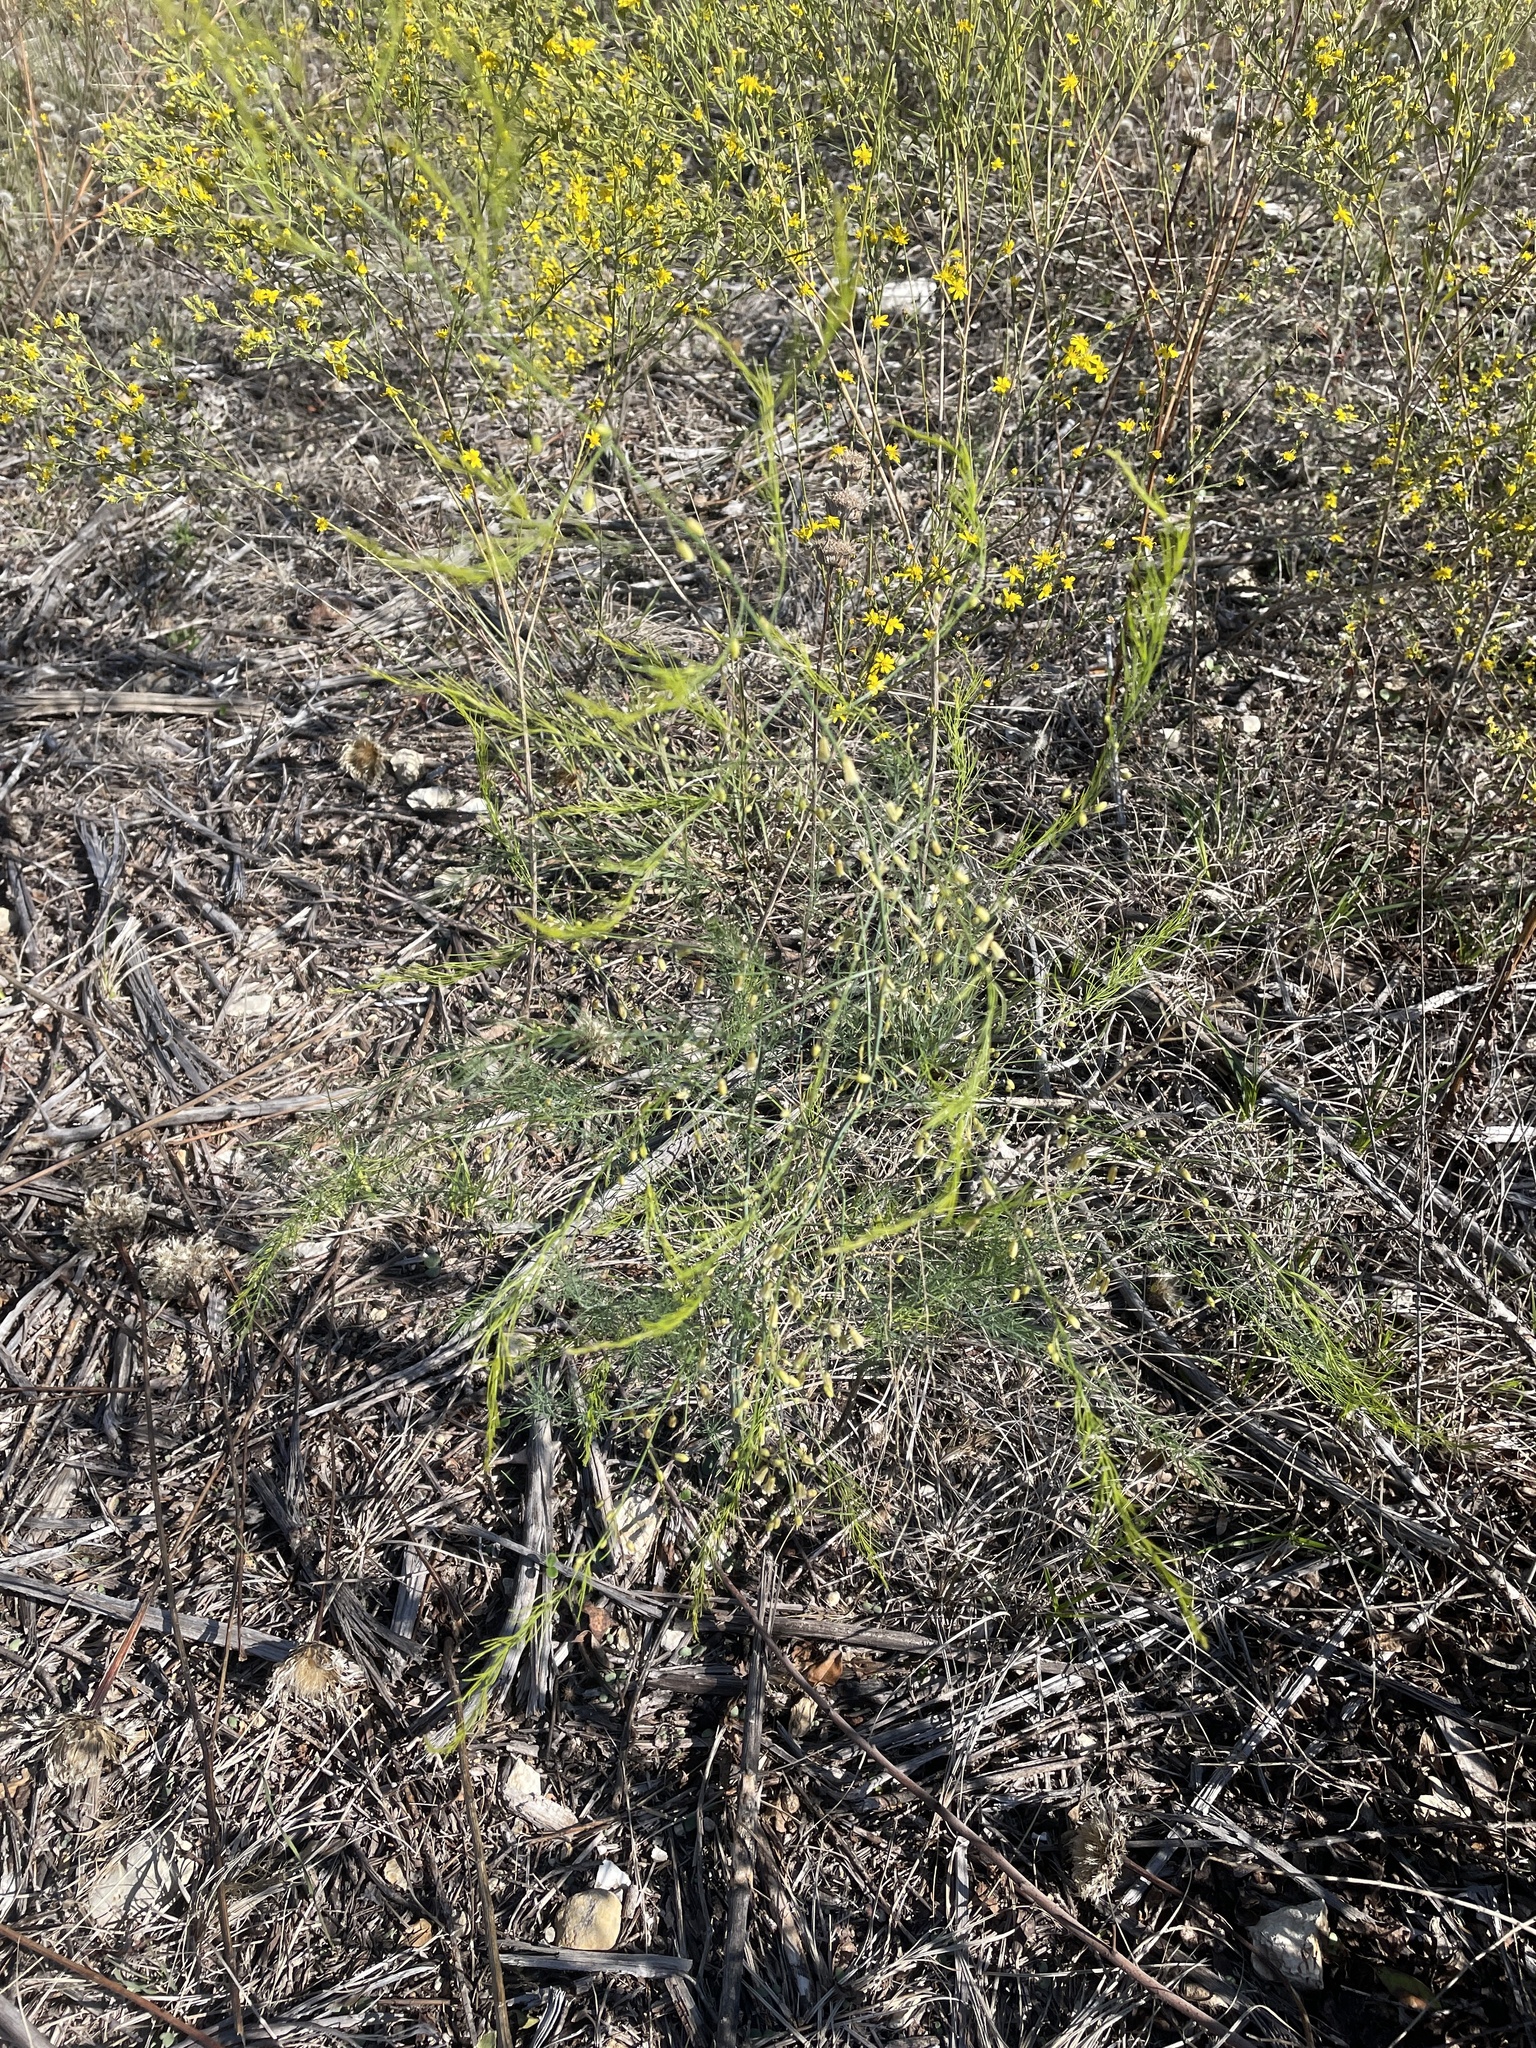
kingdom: Plantae
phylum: Tracheophyta
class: Liliopsida
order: Asparagales
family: Asparagaceae
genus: Asparagus
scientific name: Asparagus officinalis
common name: Garden asparagus
